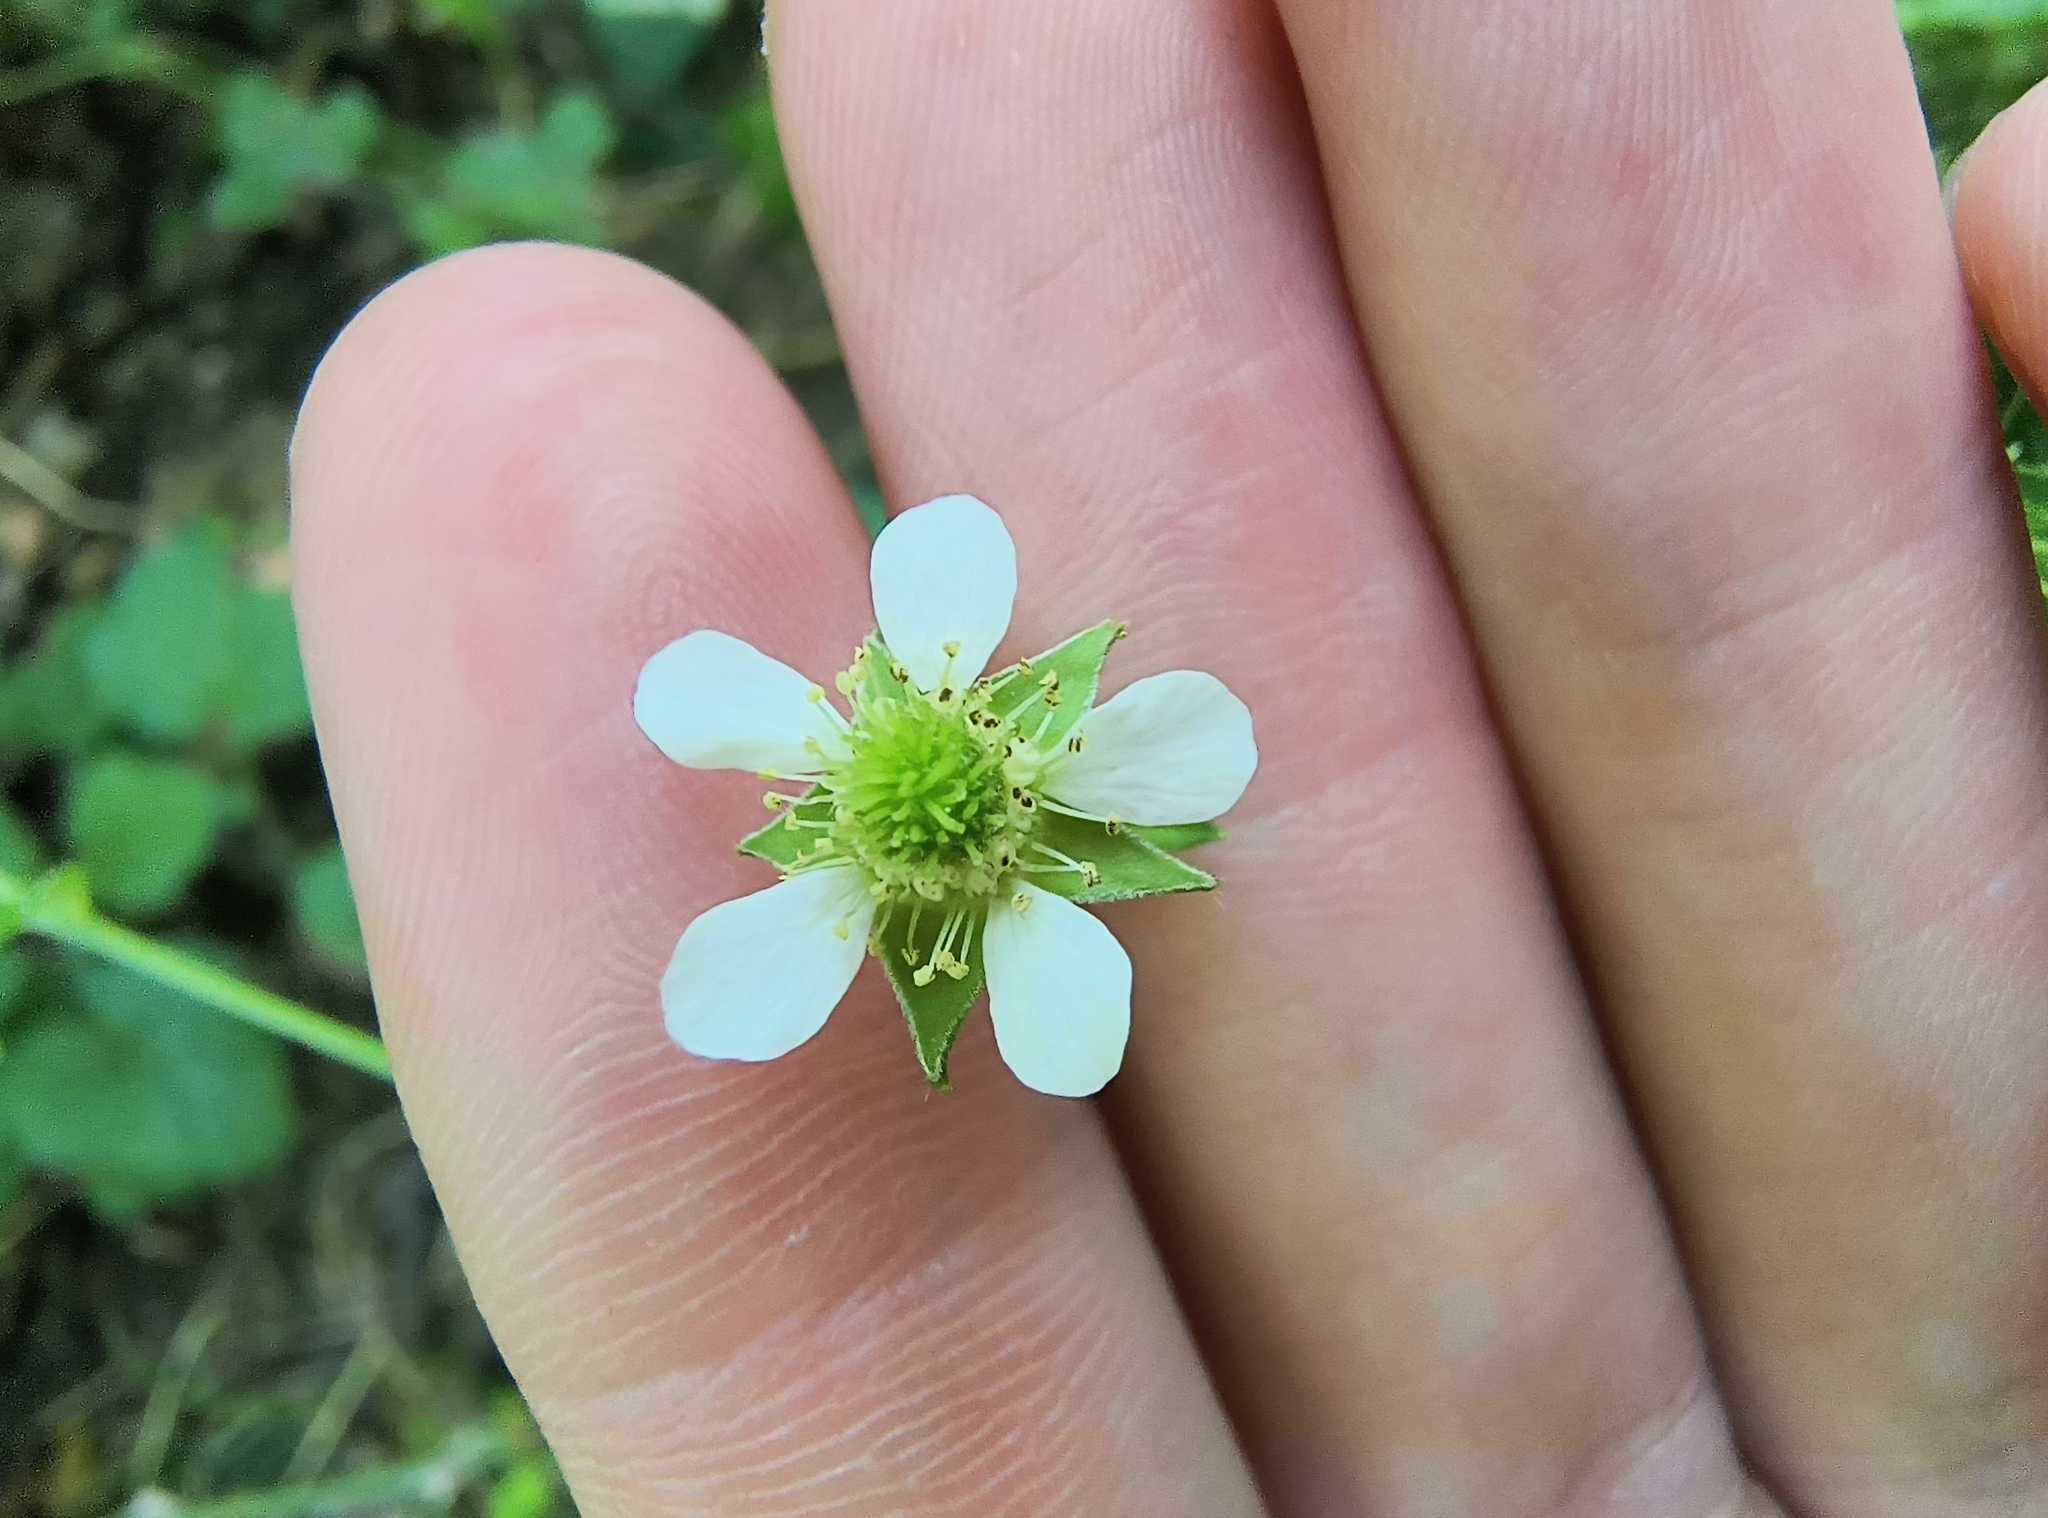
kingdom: Plantae
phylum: Tracheophyta
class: Magnoliopsida
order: Rosales
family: Rosaceae
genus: Geum
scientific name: Geum canadense
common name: White avens
